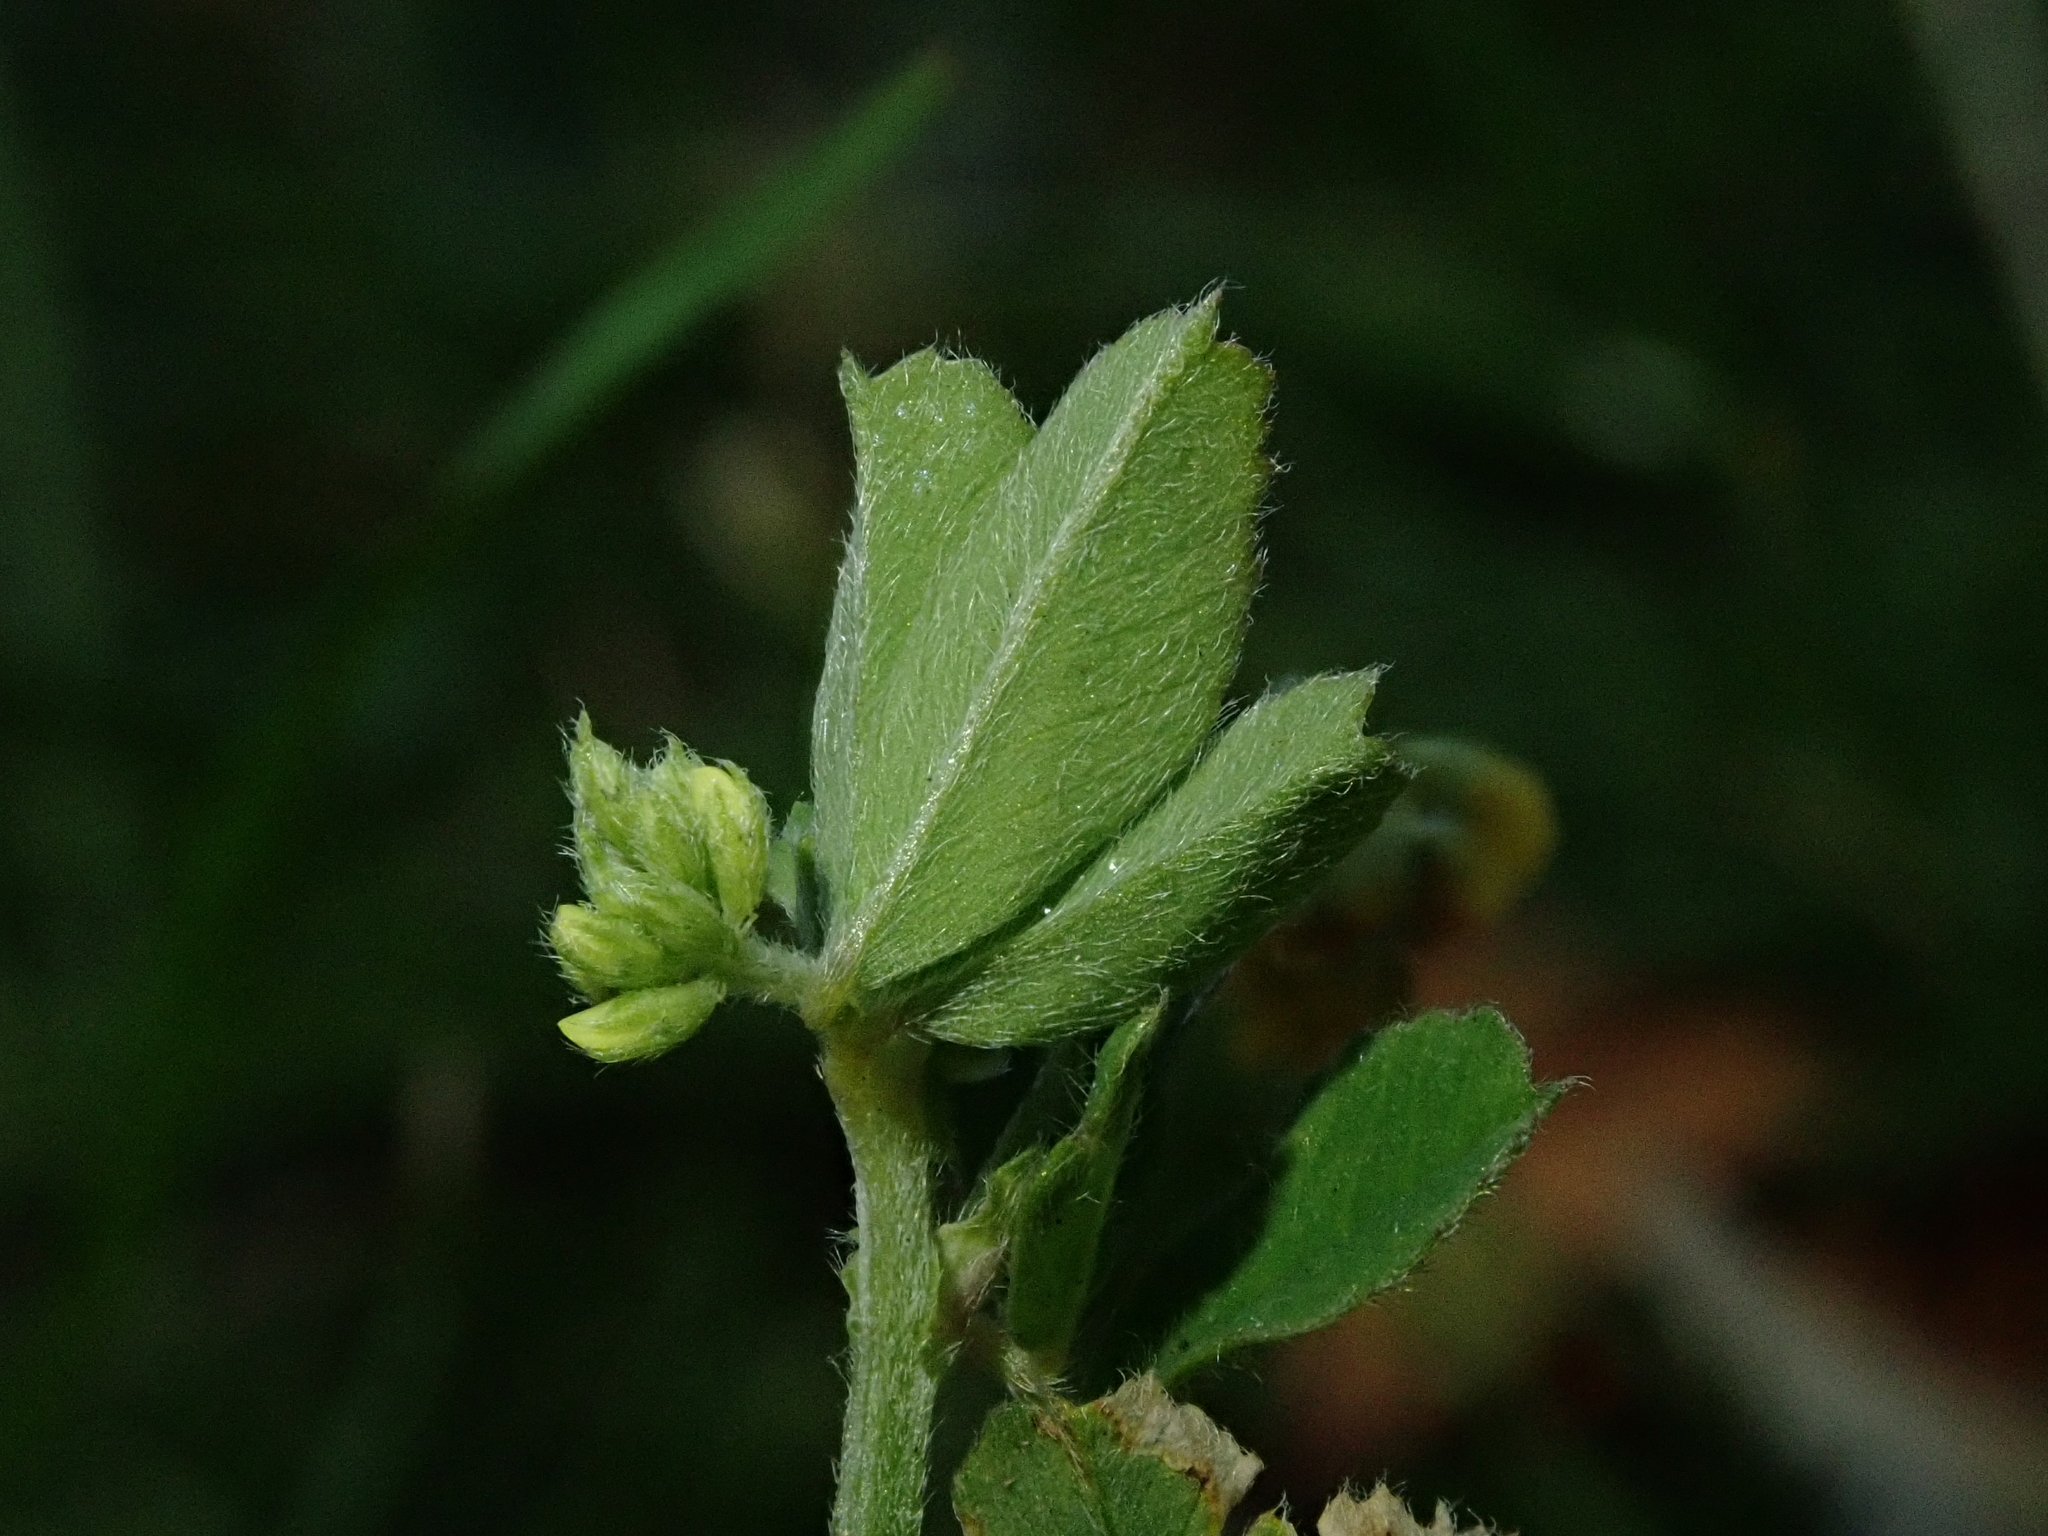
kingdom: Plantae
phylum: Tracheophyta
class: Magnoliopsida
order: Fabales
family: Fabaceae
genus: Medicago
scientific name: Medicago lupulina
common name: Black medick
